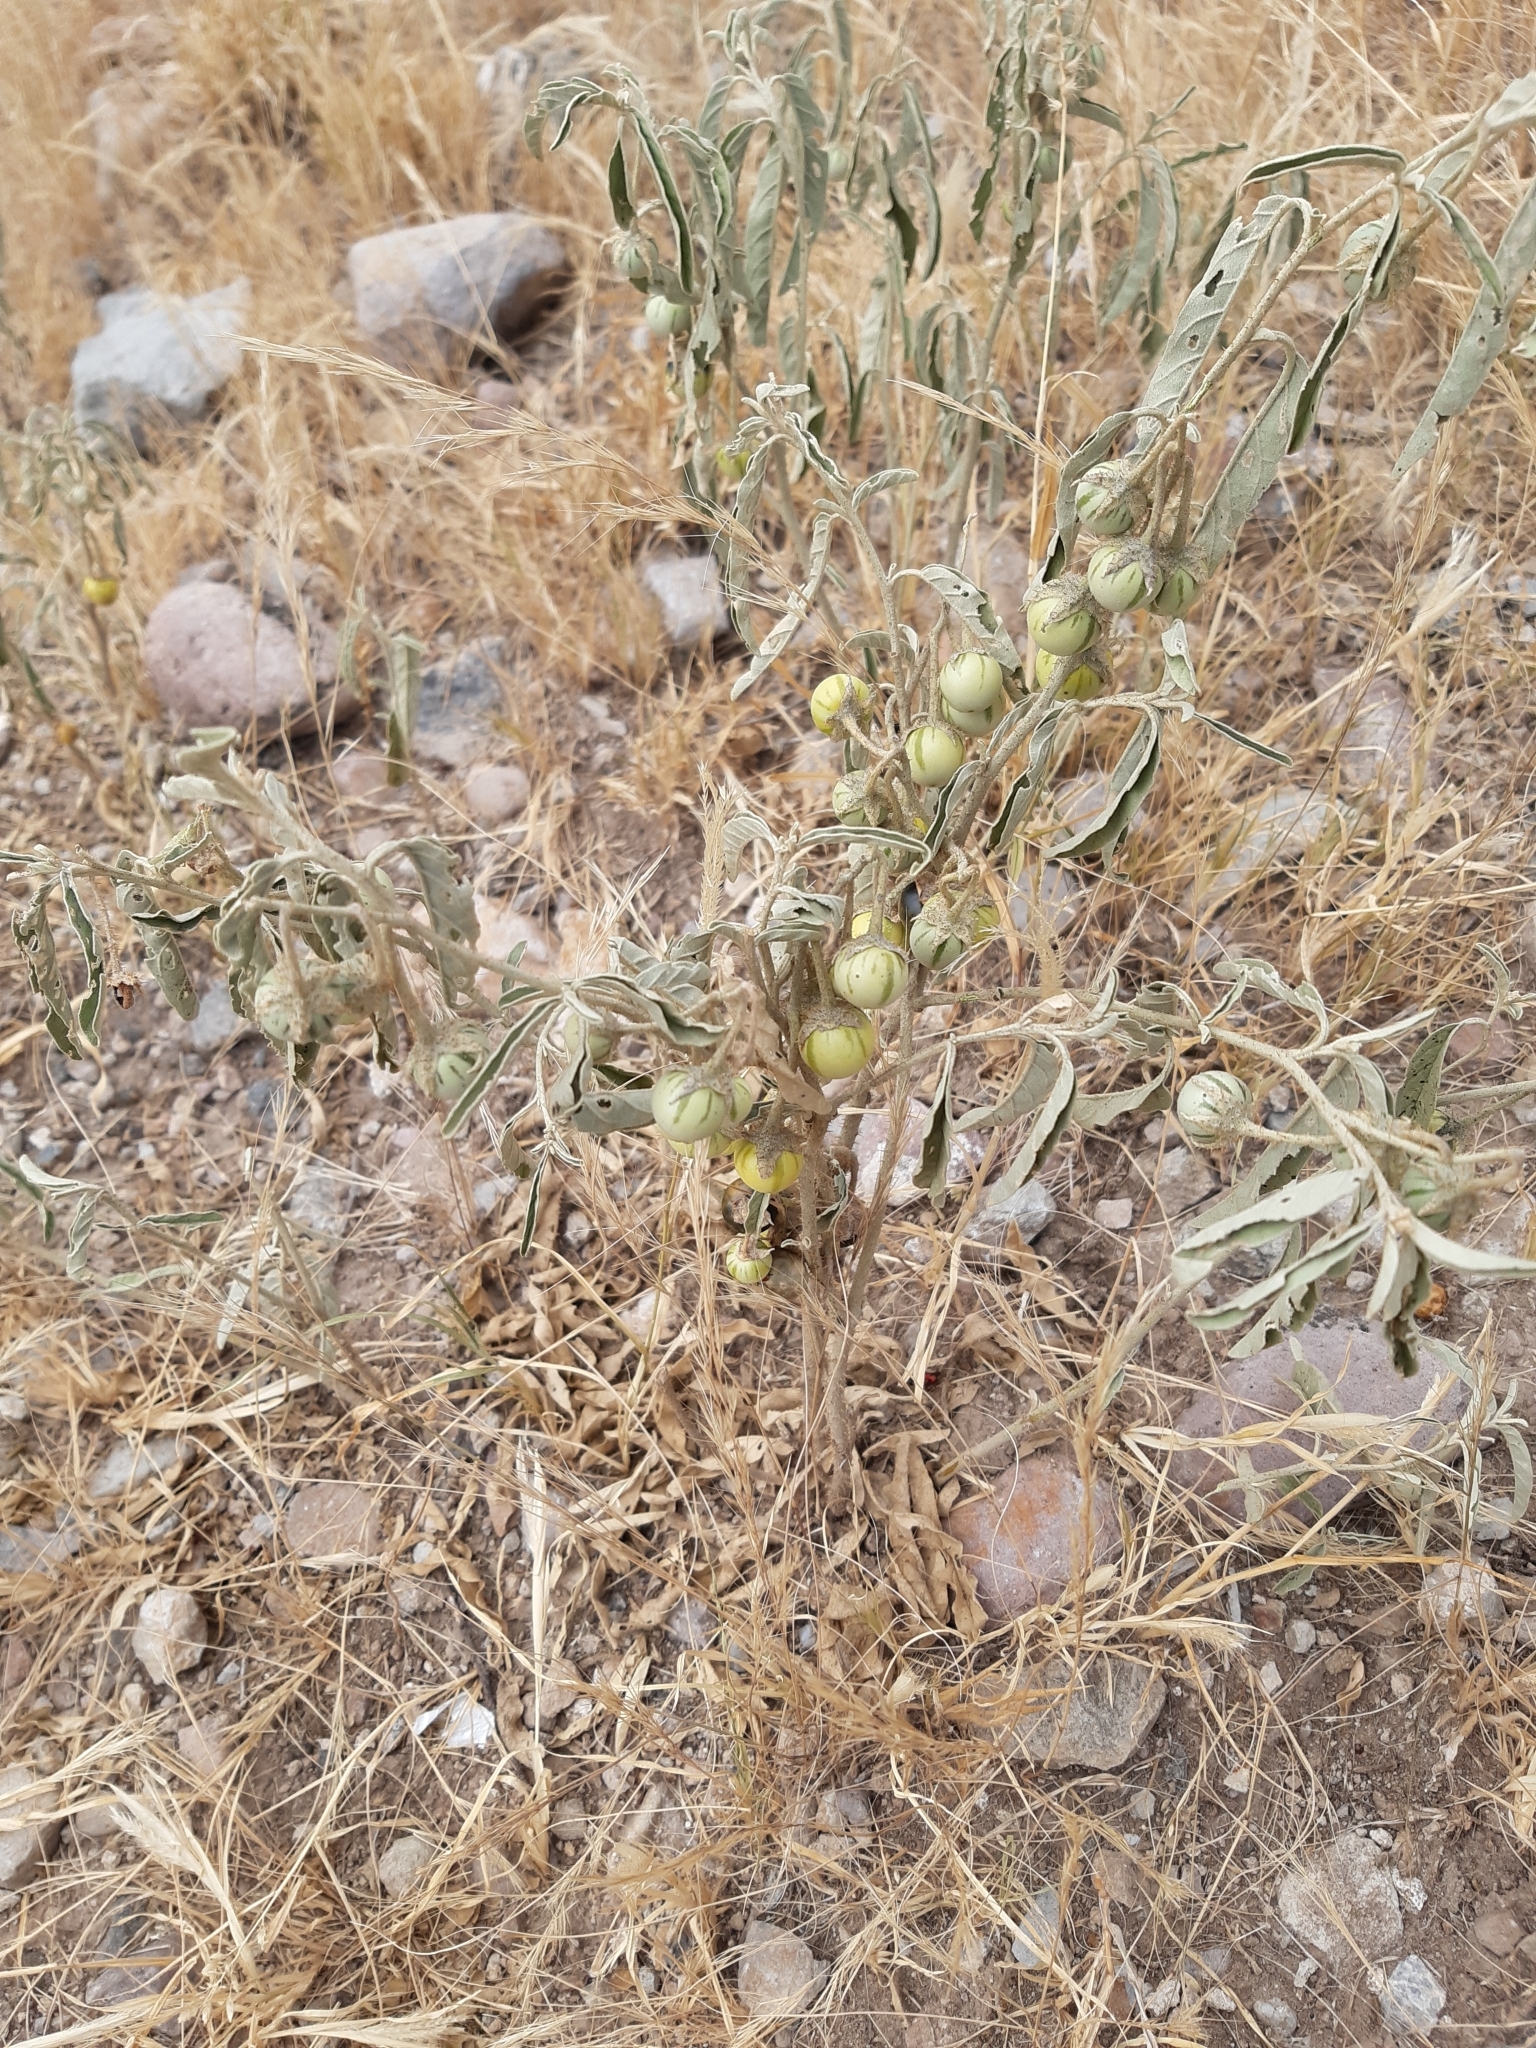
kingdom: Plantae
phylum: Tracheophyta
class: Magnoliopsida
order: Solanales
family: Solanaceae
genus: Solanum
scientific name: Solanum elaeagnifolium
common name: Silverleaf nightshade
